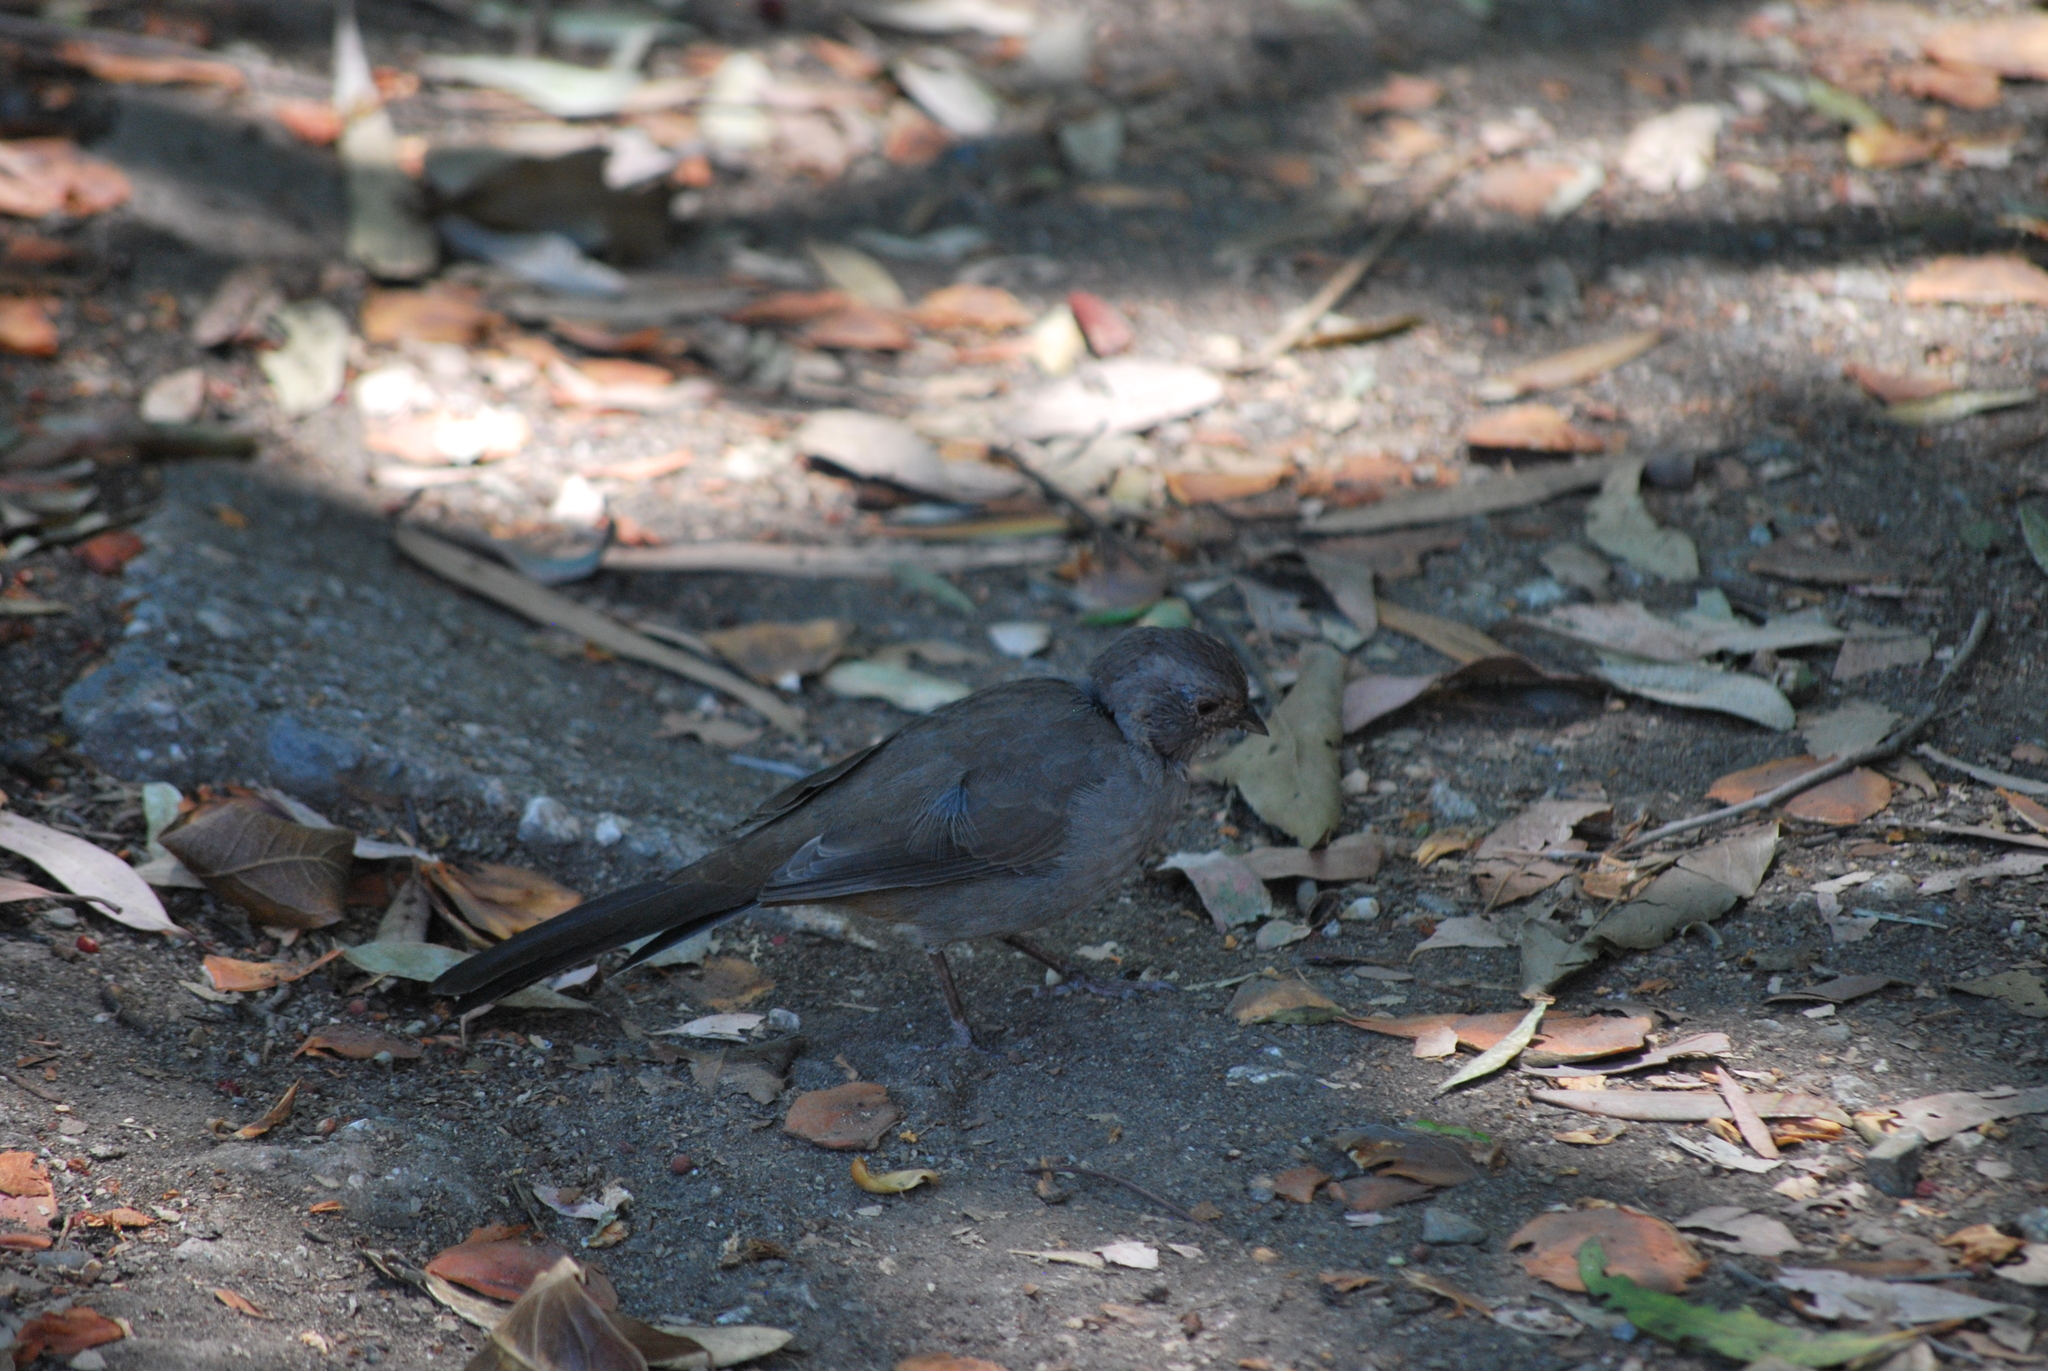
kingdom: Animalia
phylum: Chordata
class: Aves
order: Passeriformes
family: Passerellidae
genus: Melozone
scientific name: Melozone crissalis
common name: California towhee
